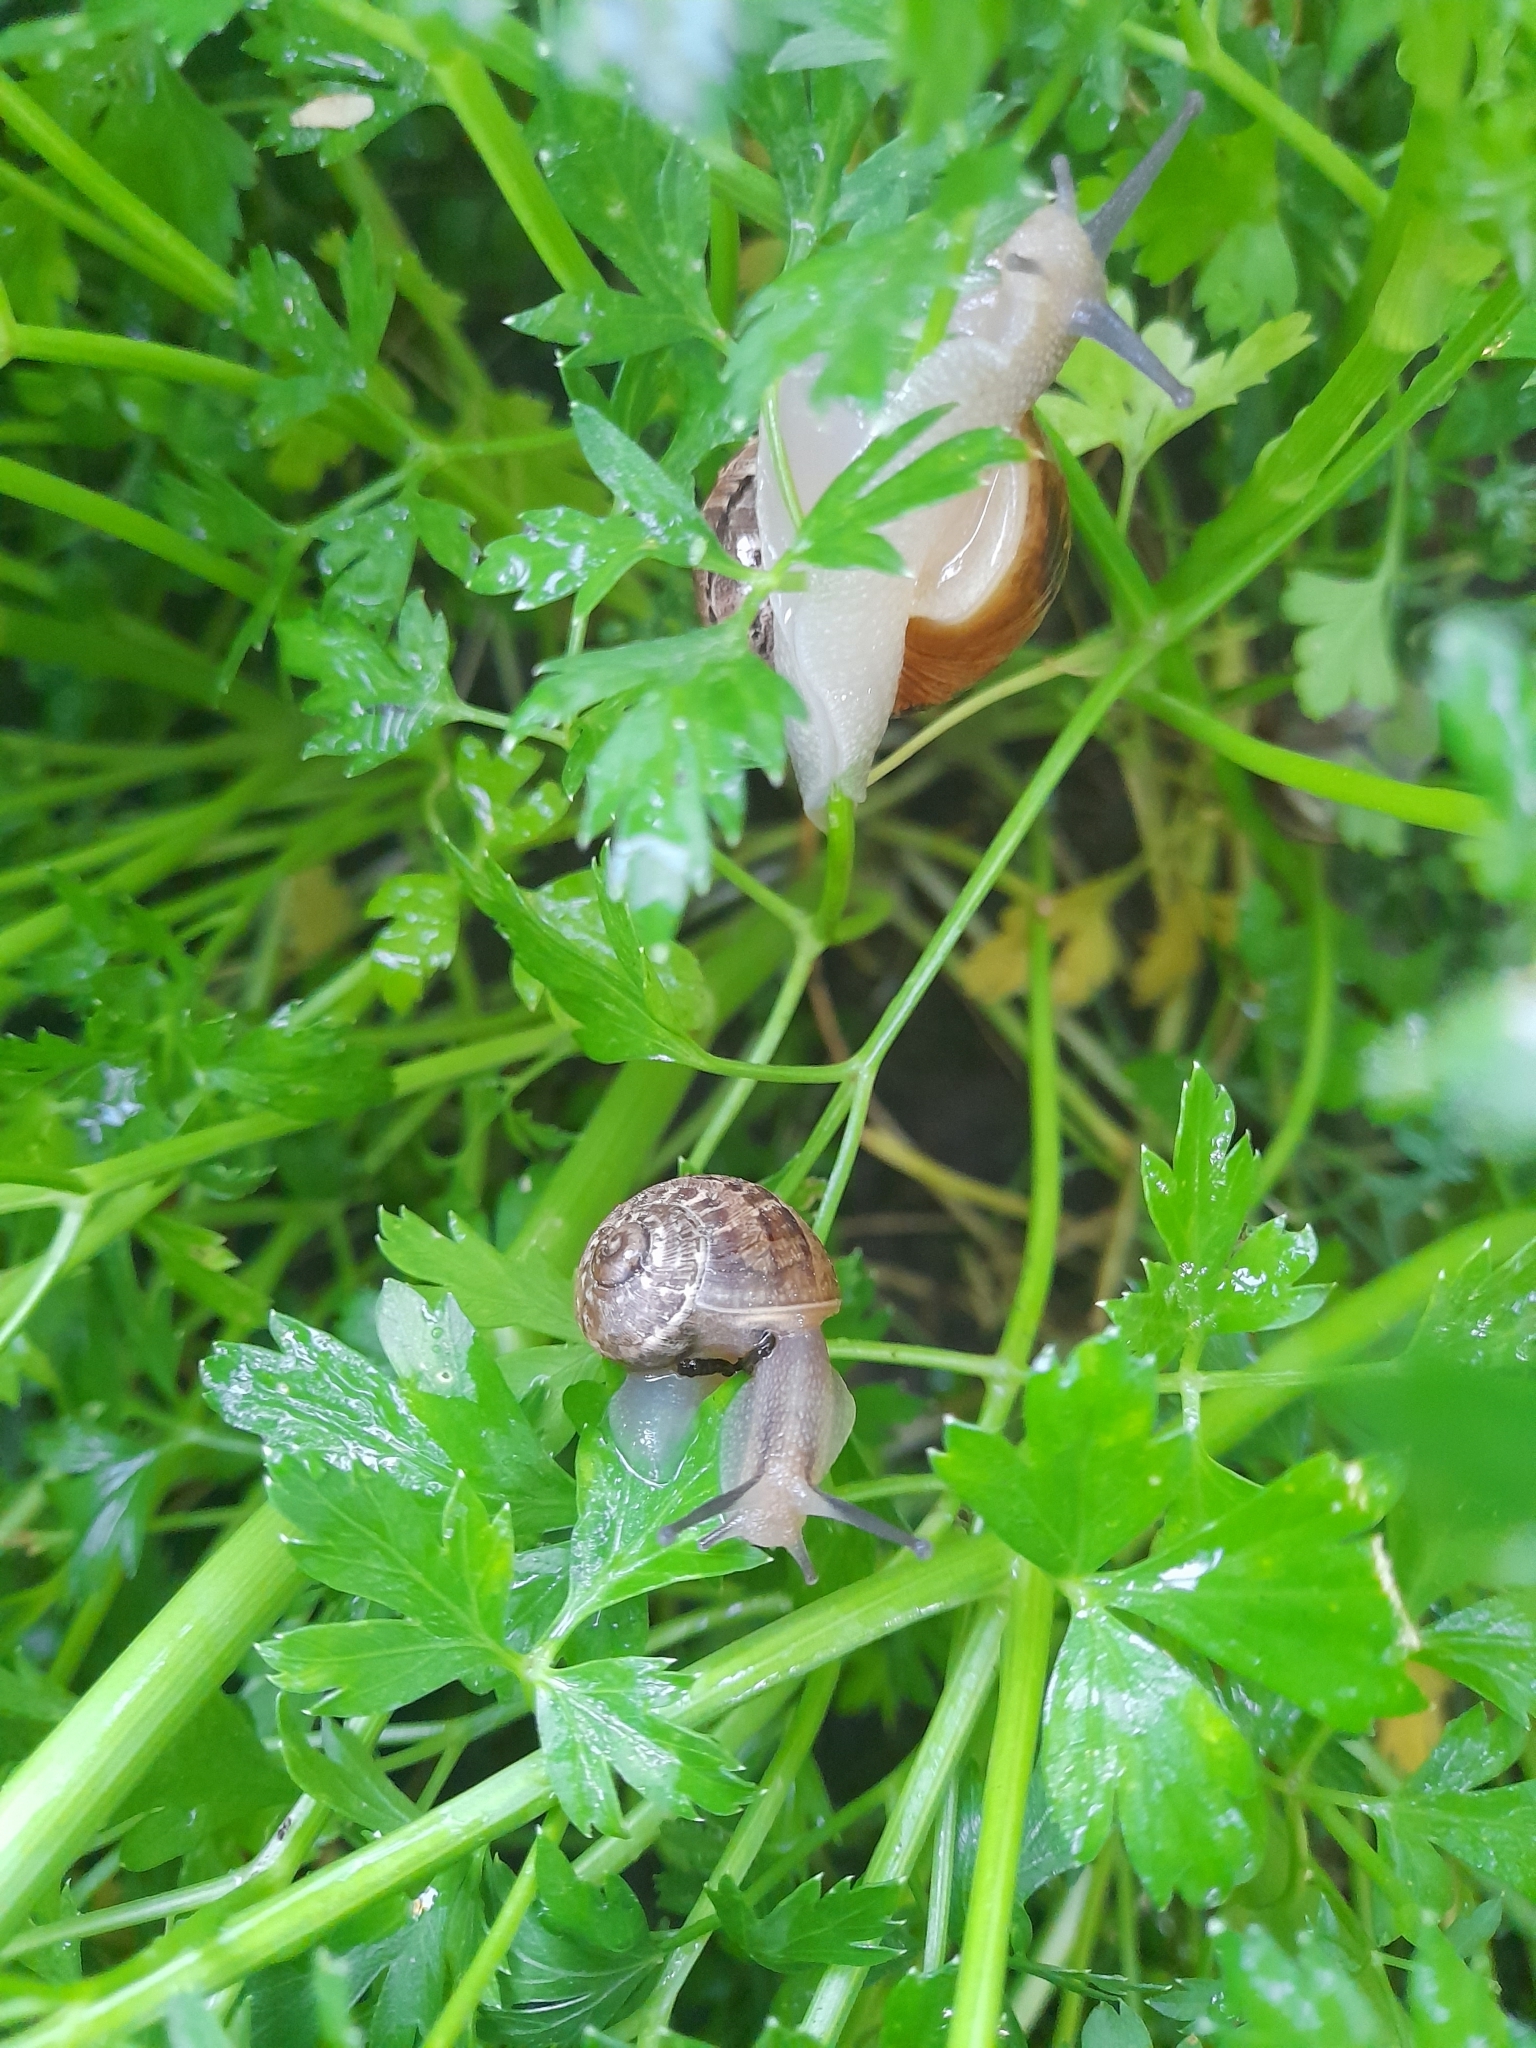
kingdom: Animalia
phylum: Mollusca
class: Gastropoda
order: Stylommatophora
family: Helicidae
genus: Cornu
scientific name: Cornu aspersum
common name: Brown garden snail
